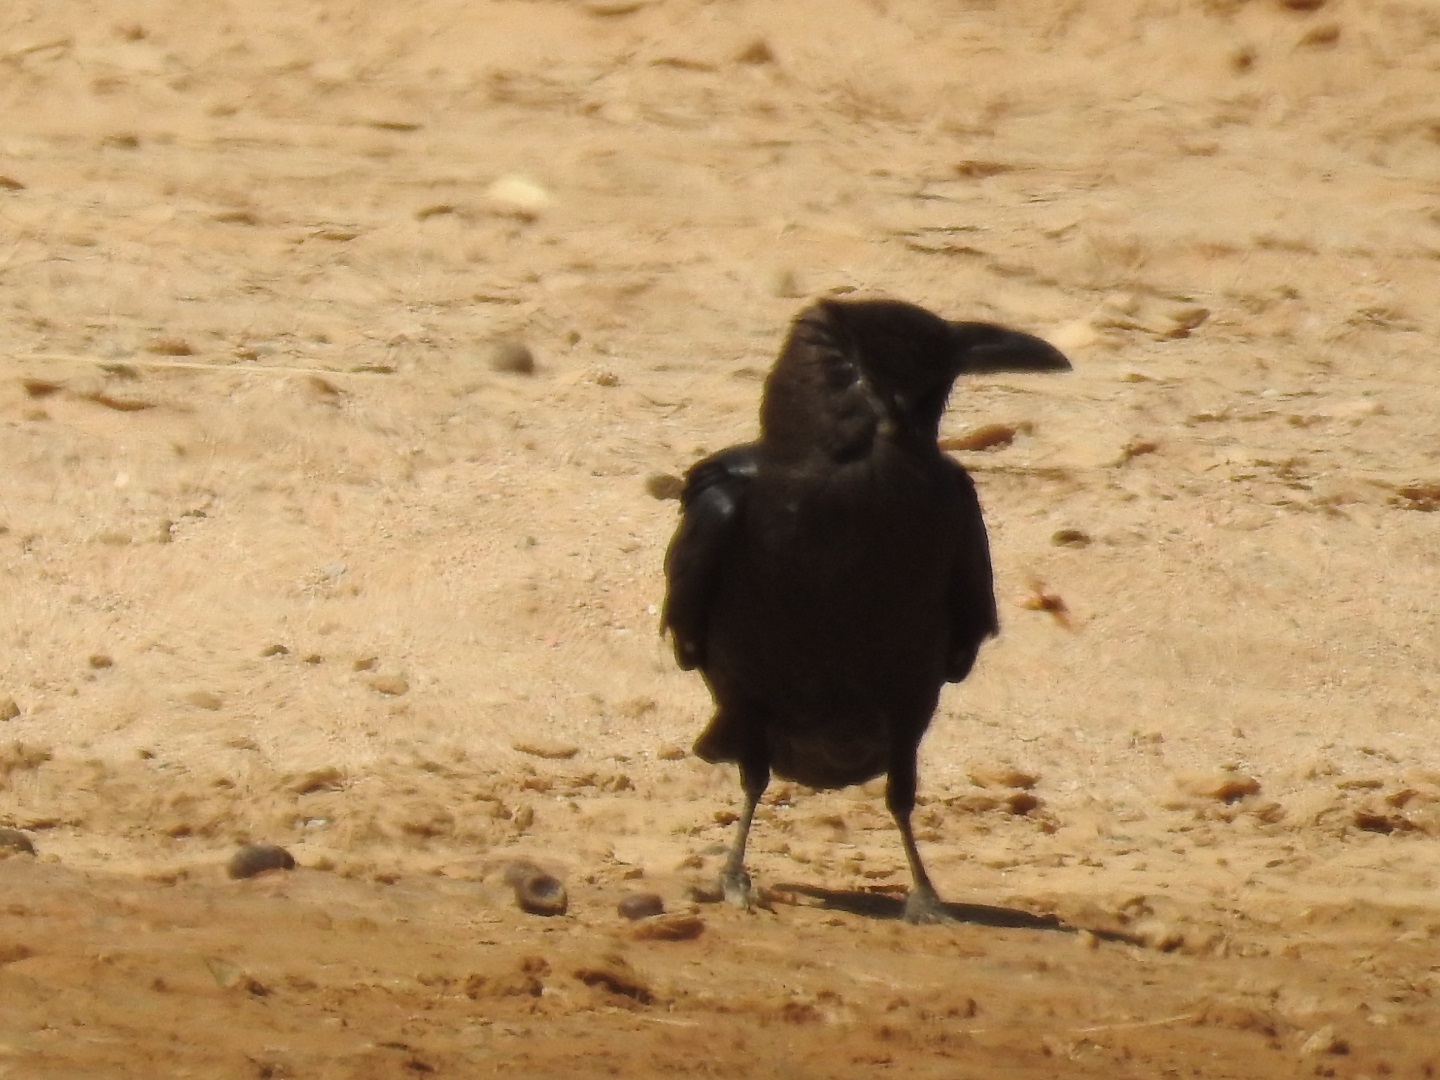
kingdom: Animalia
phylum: Chordata
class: Aves
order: Passeriformes
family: Corvidae
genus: Corvus
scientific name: Corvus ruficollis
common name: Brown-necked raven
